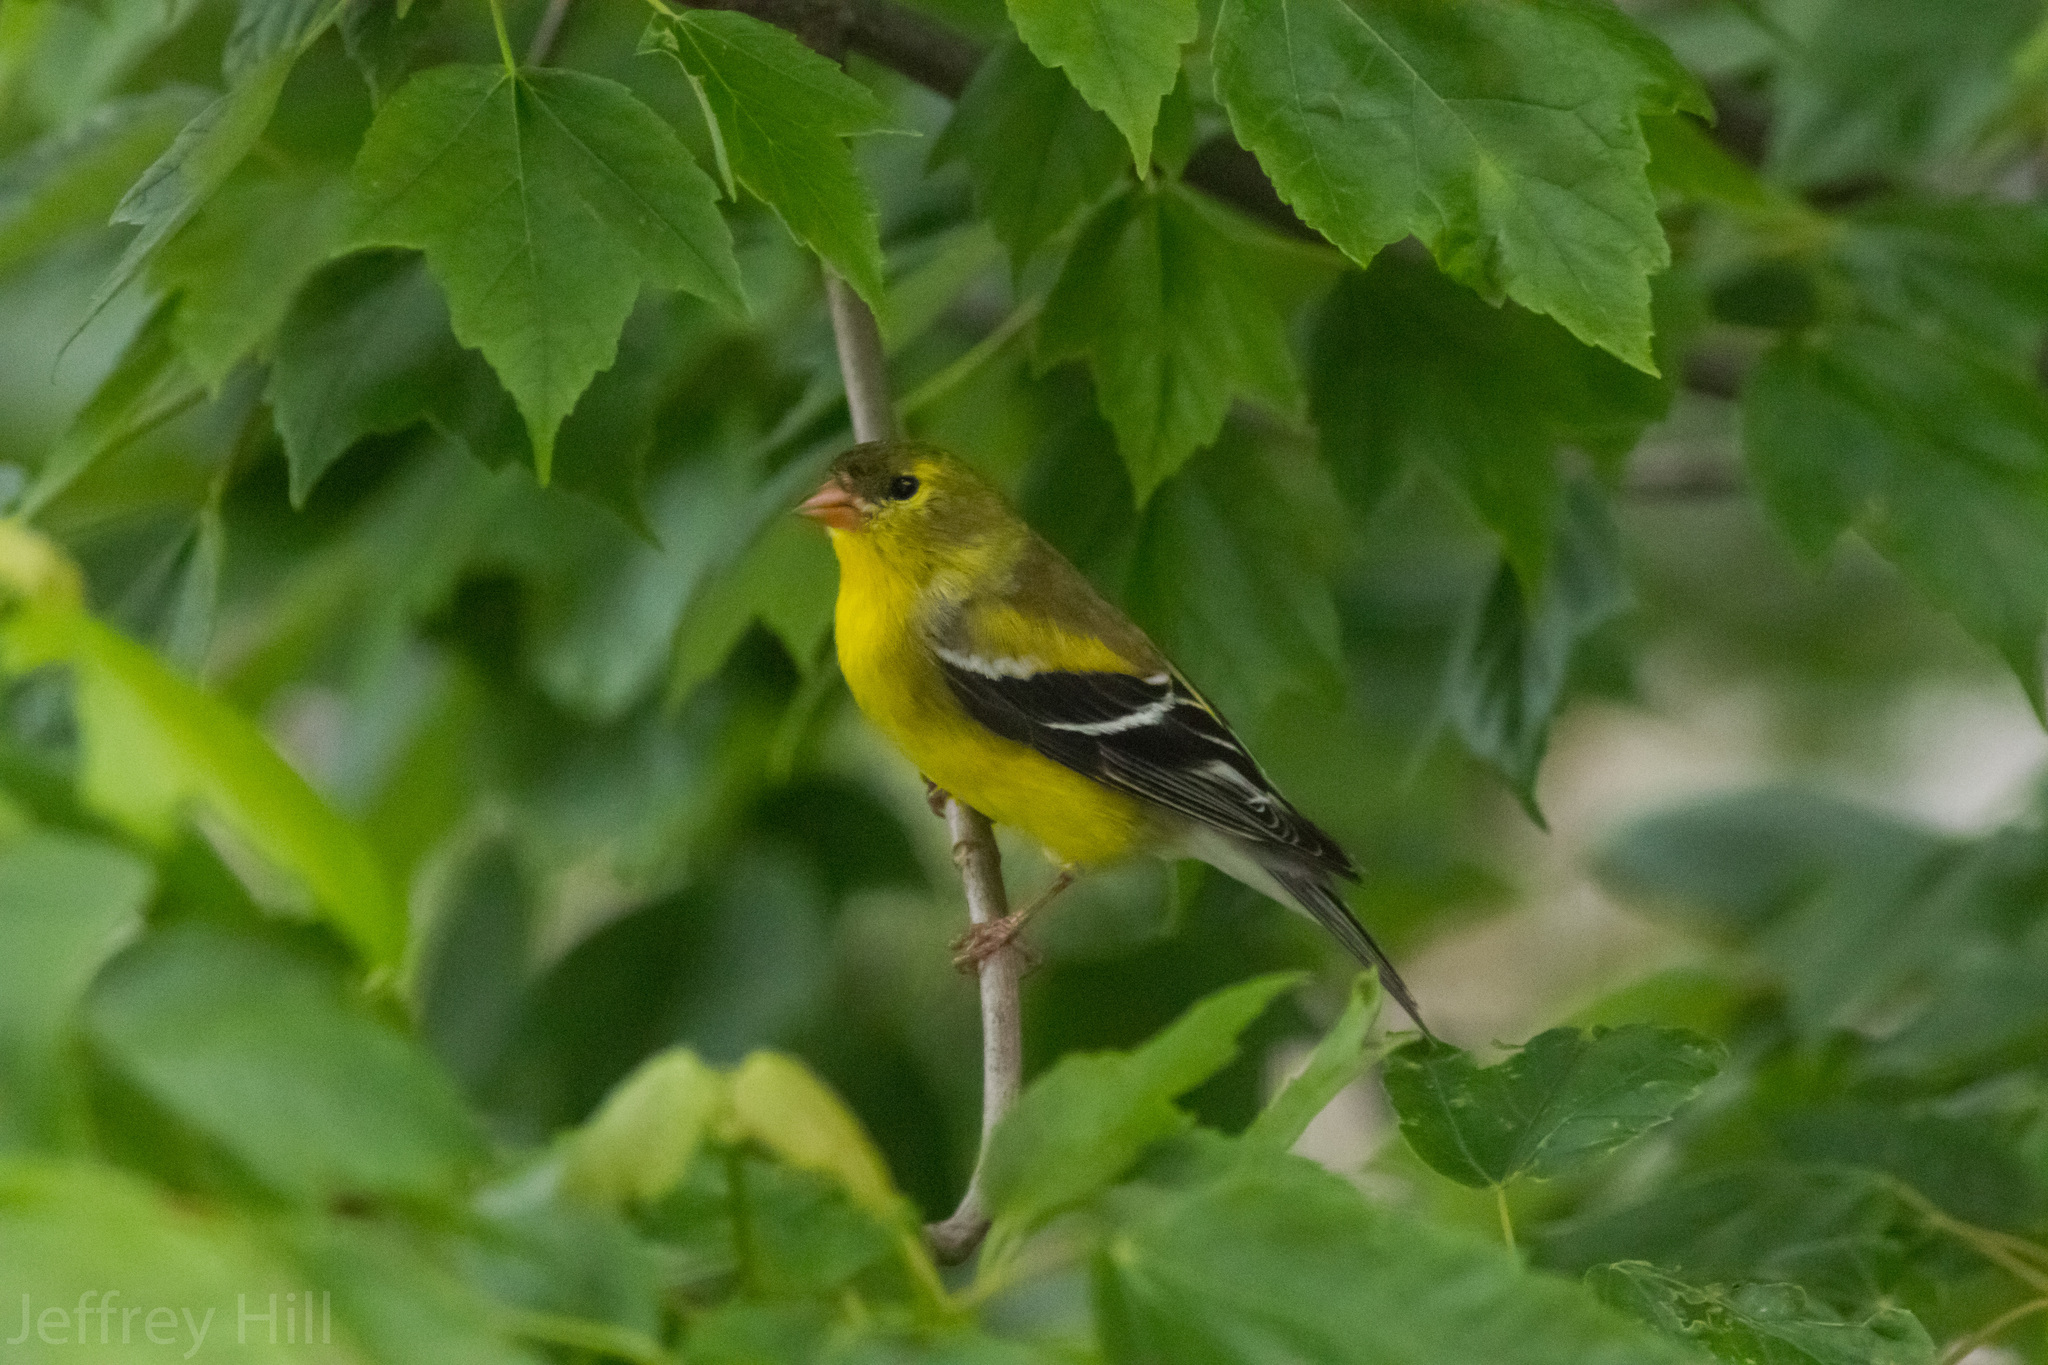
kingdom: Animalia
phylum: Chordata
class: Aves
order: Passeriformes
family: Fringillidae
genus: Spinus
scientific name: Spinus tristis
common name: American goldfinch
